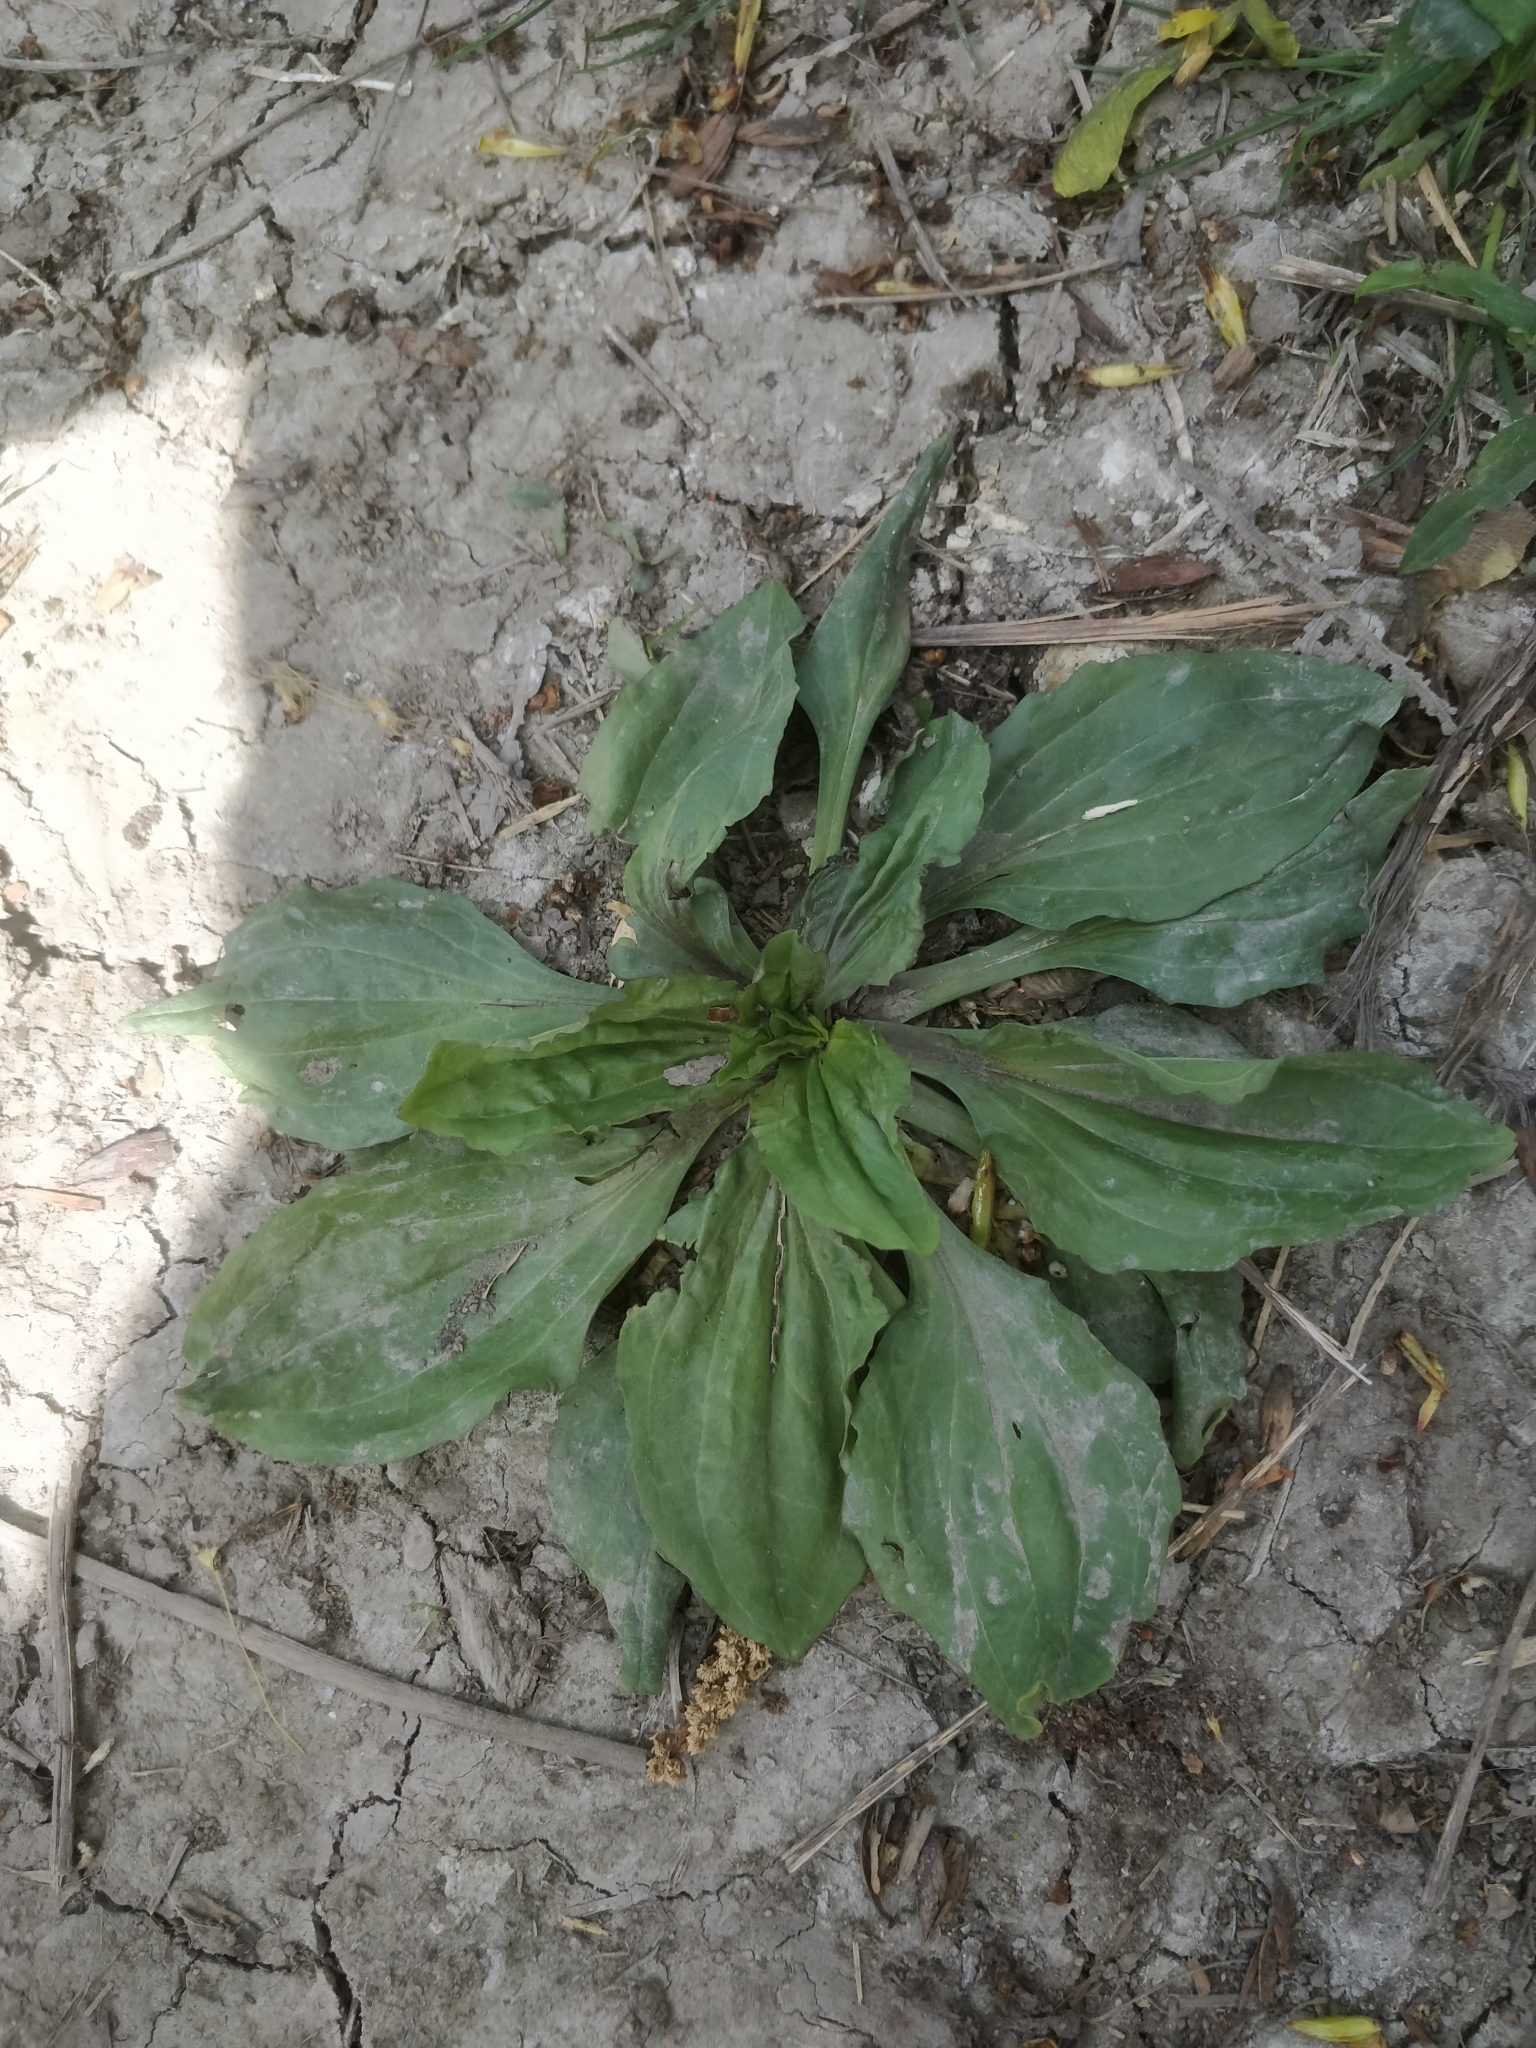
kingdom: Plantae
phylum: Tracheophyta
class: Magnoliopsida
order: Lamiales
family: Plantaginaceae
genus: Plantago
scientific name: Plantago rugelii
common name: American plantain
